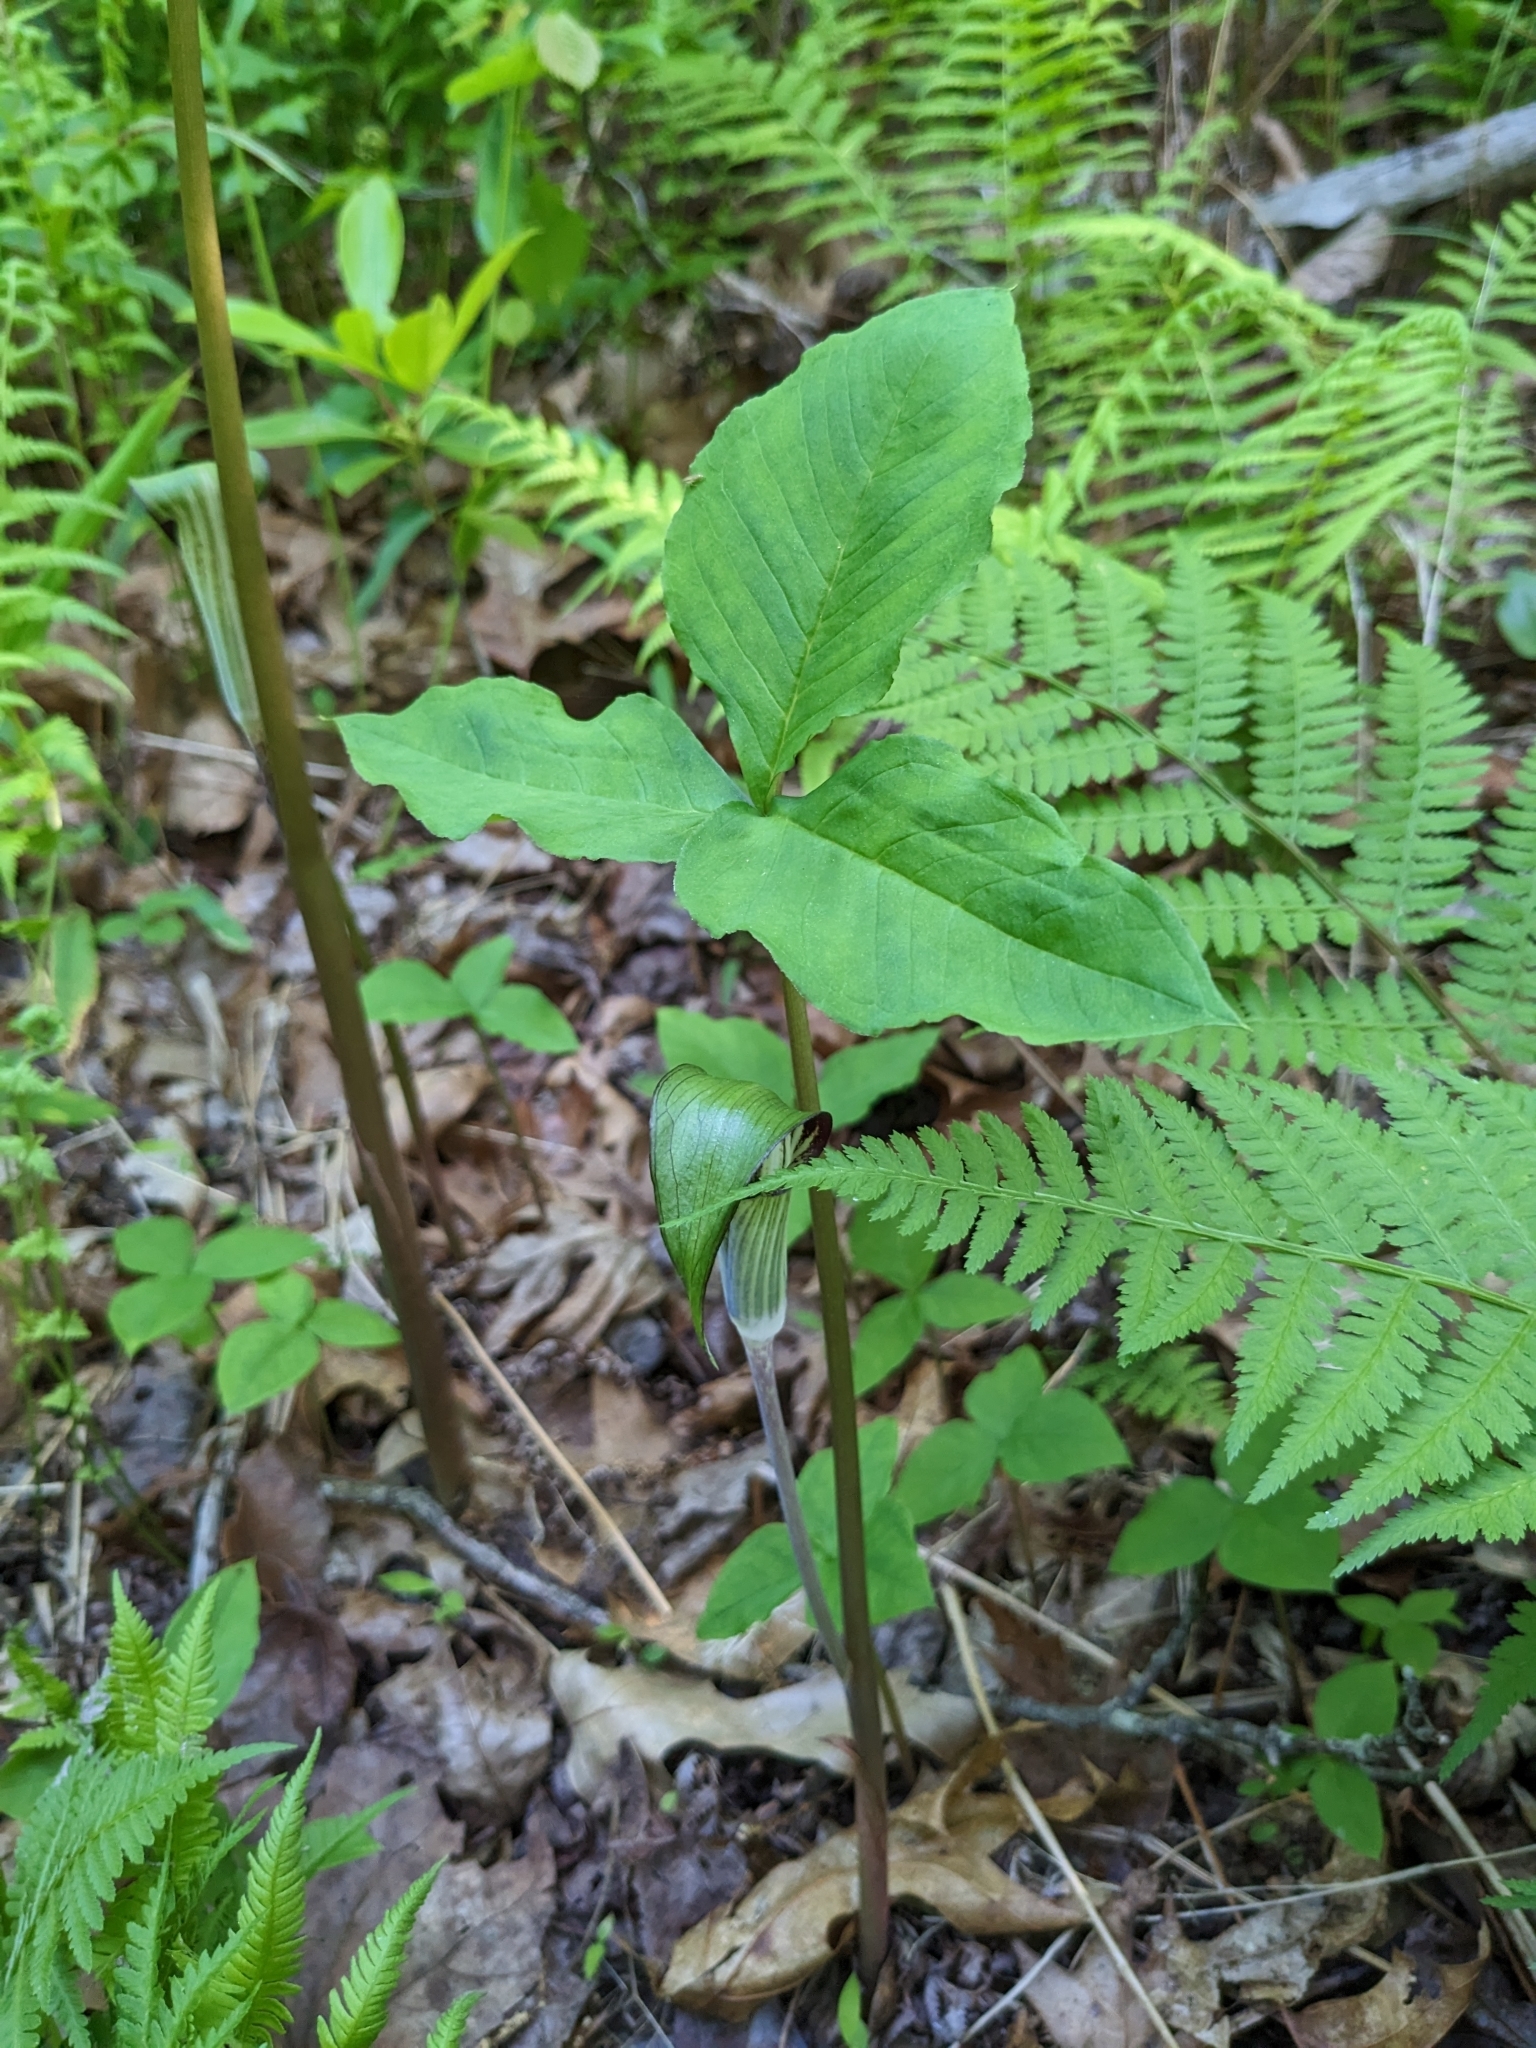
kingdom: Plantae
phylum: Tracheophyta
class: Liliopsida
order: Alismatales
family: Araceae
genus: Arisaema
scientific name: Arisaema triphyllum
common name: Jack-in-the-pulpit
